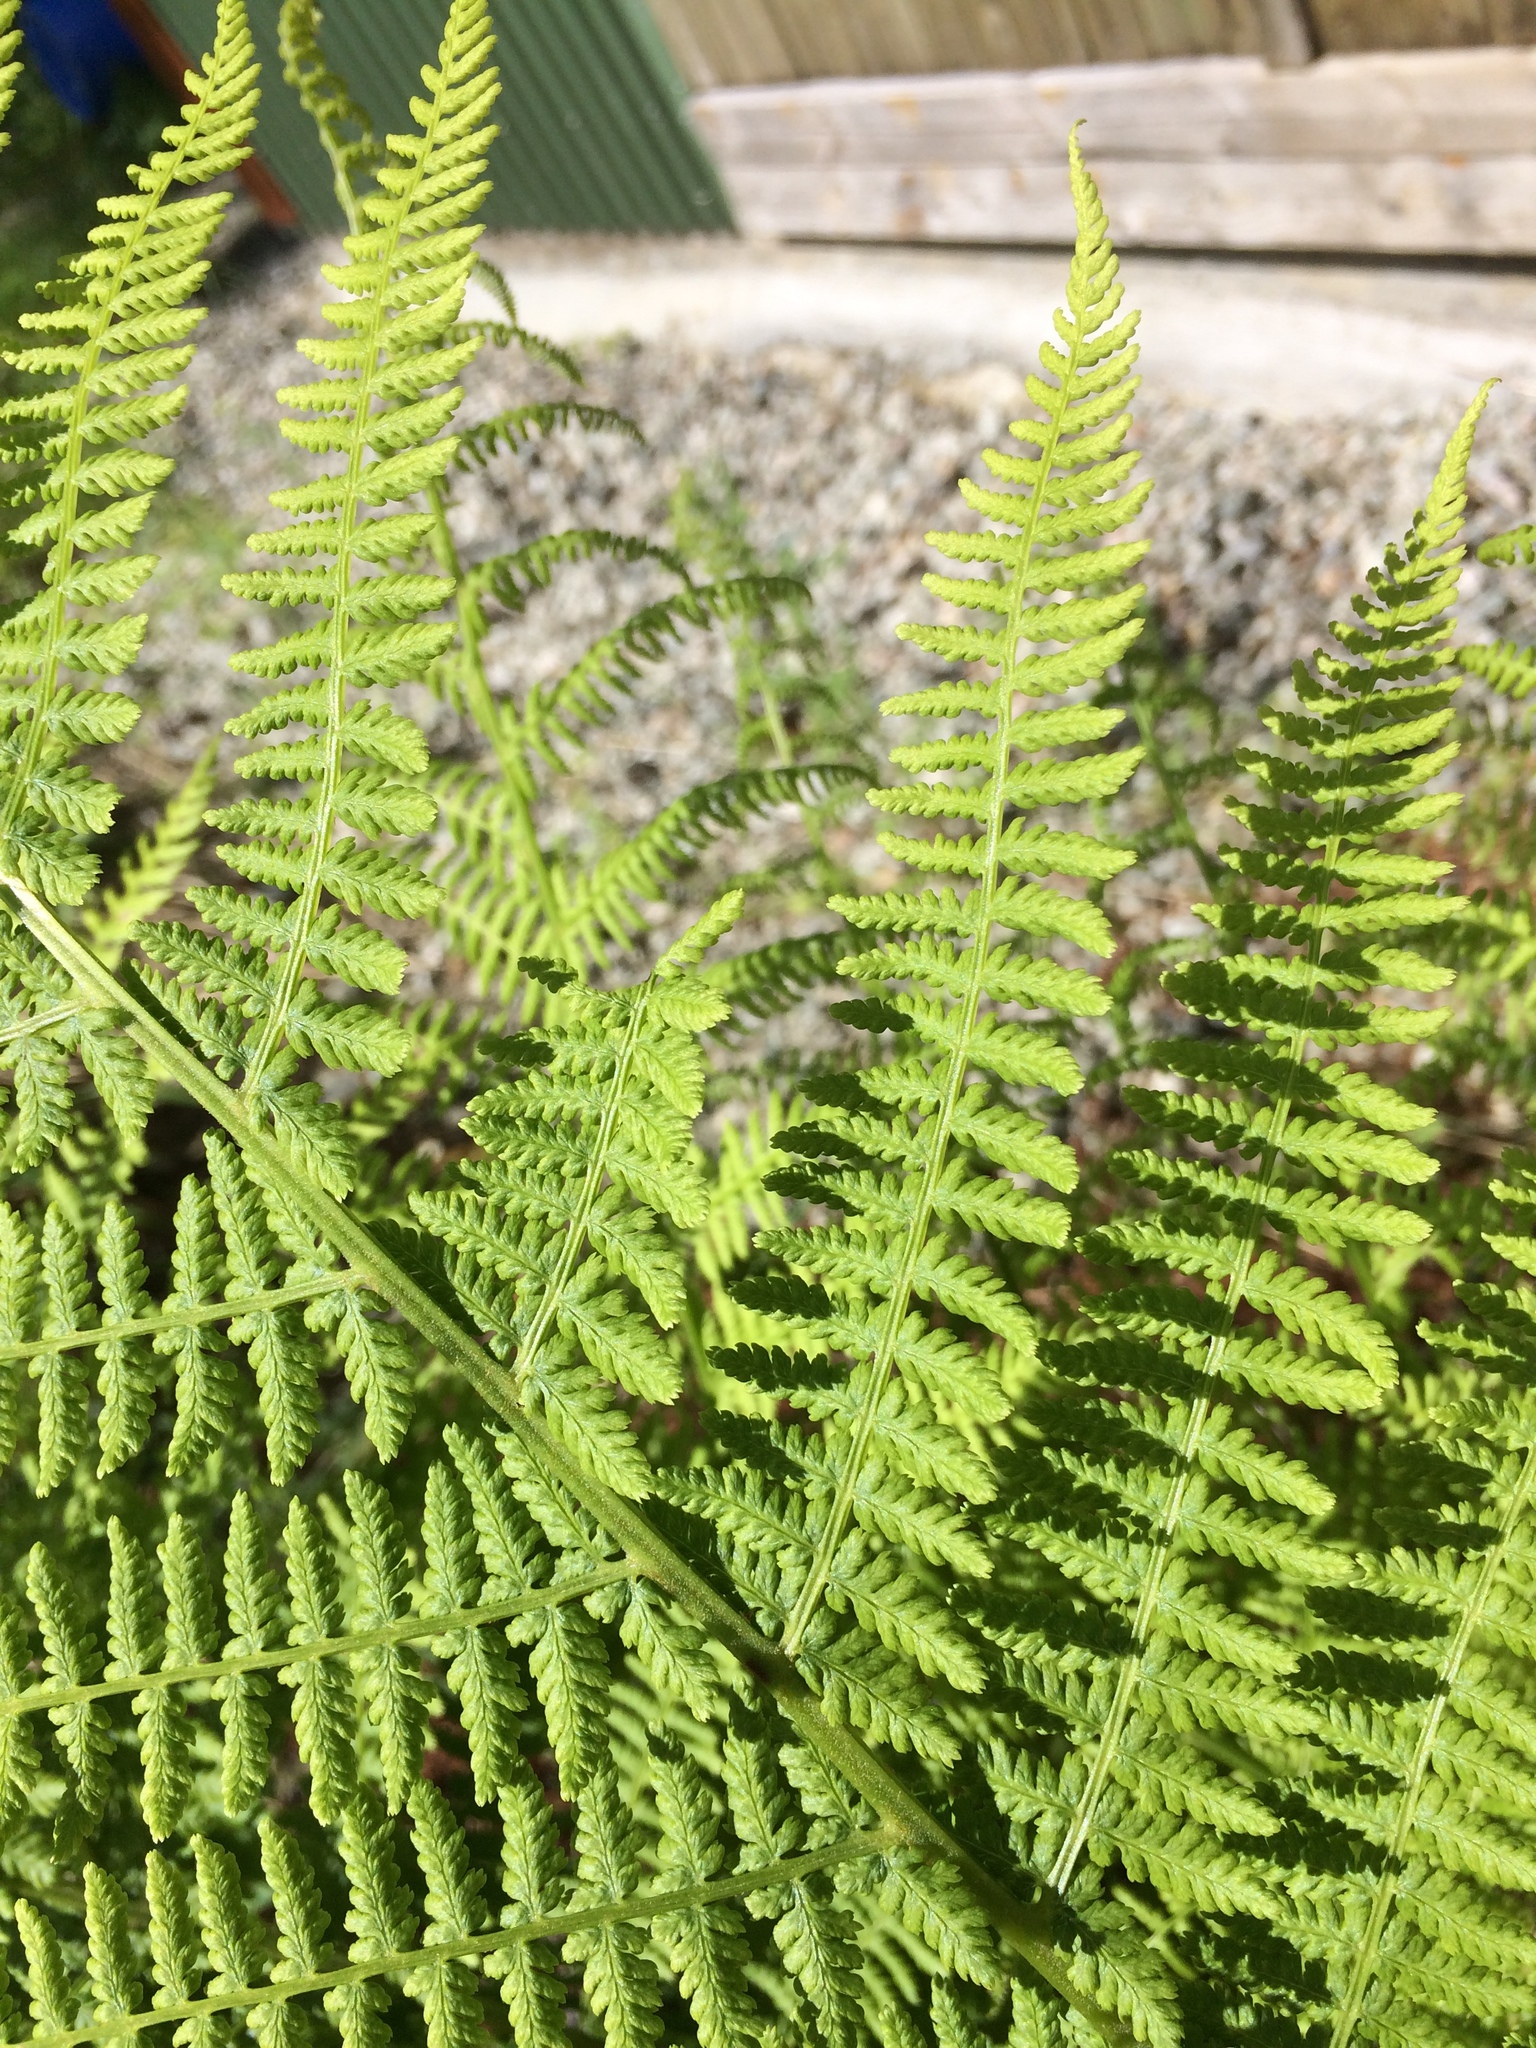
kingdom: Plantae
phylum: Tracheophyta
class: Polypodiopsida
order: Polypodiales
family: Athyriaceae
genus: Athyrium
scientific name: Athyrium filix-femina
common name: Lady fern
